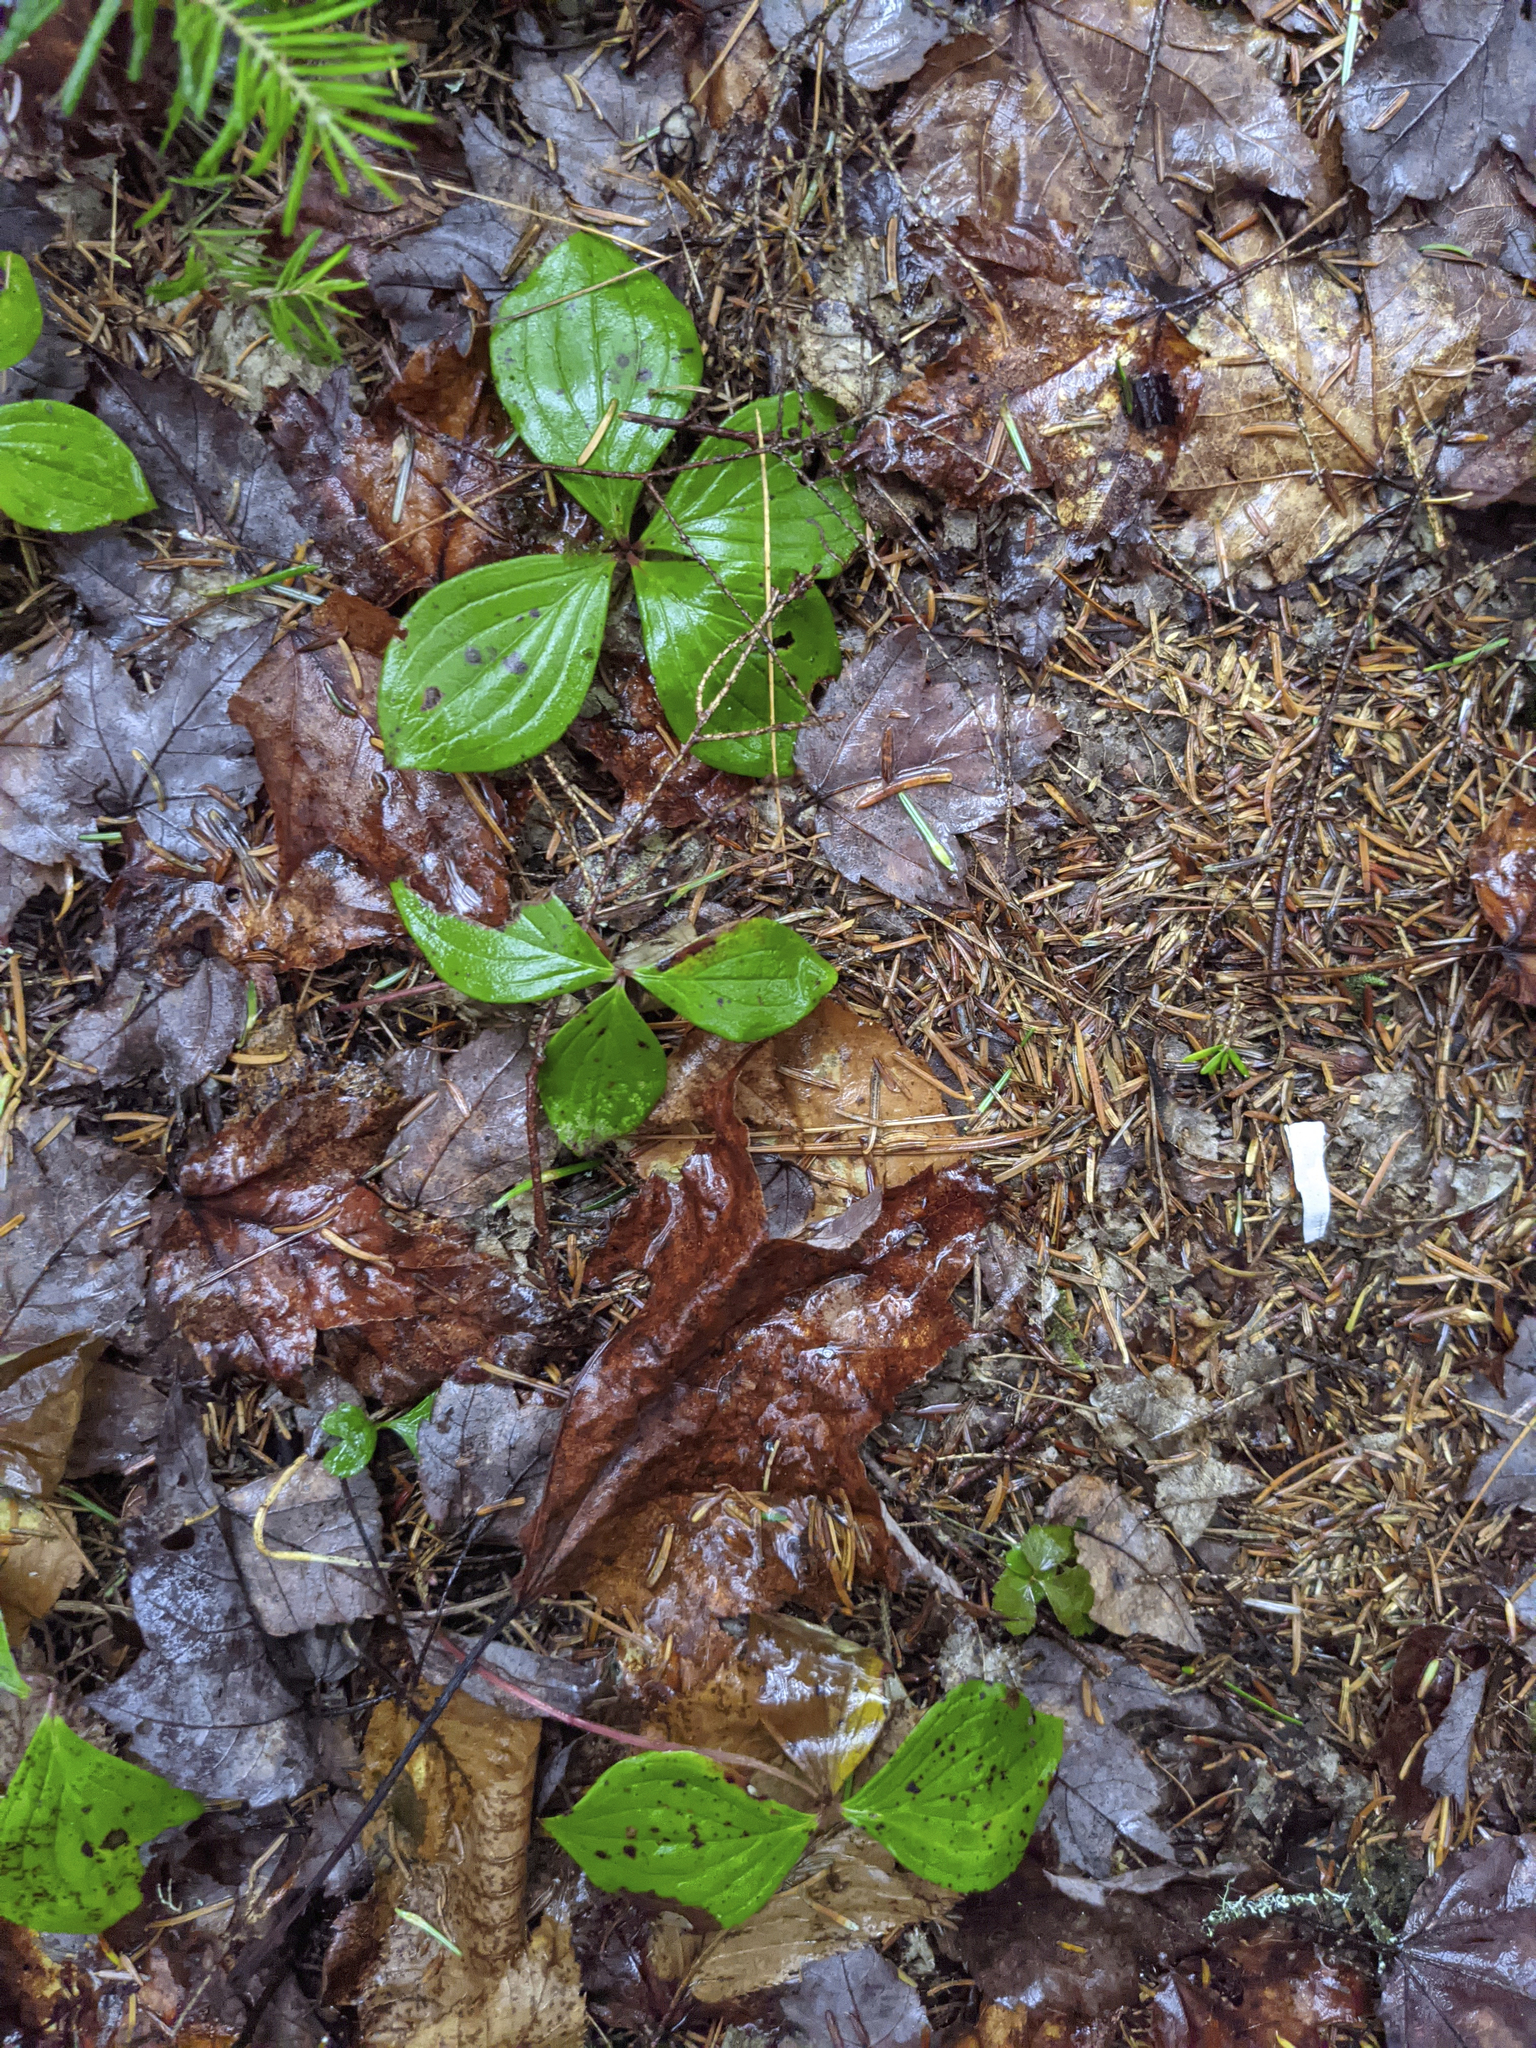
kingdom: Plantae
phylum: Tracheophyta
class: Magnoliopsida
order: Cornales
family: Cornaceae
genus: Cornus
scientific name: Cornus canadensis
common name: Creeping dogwood
